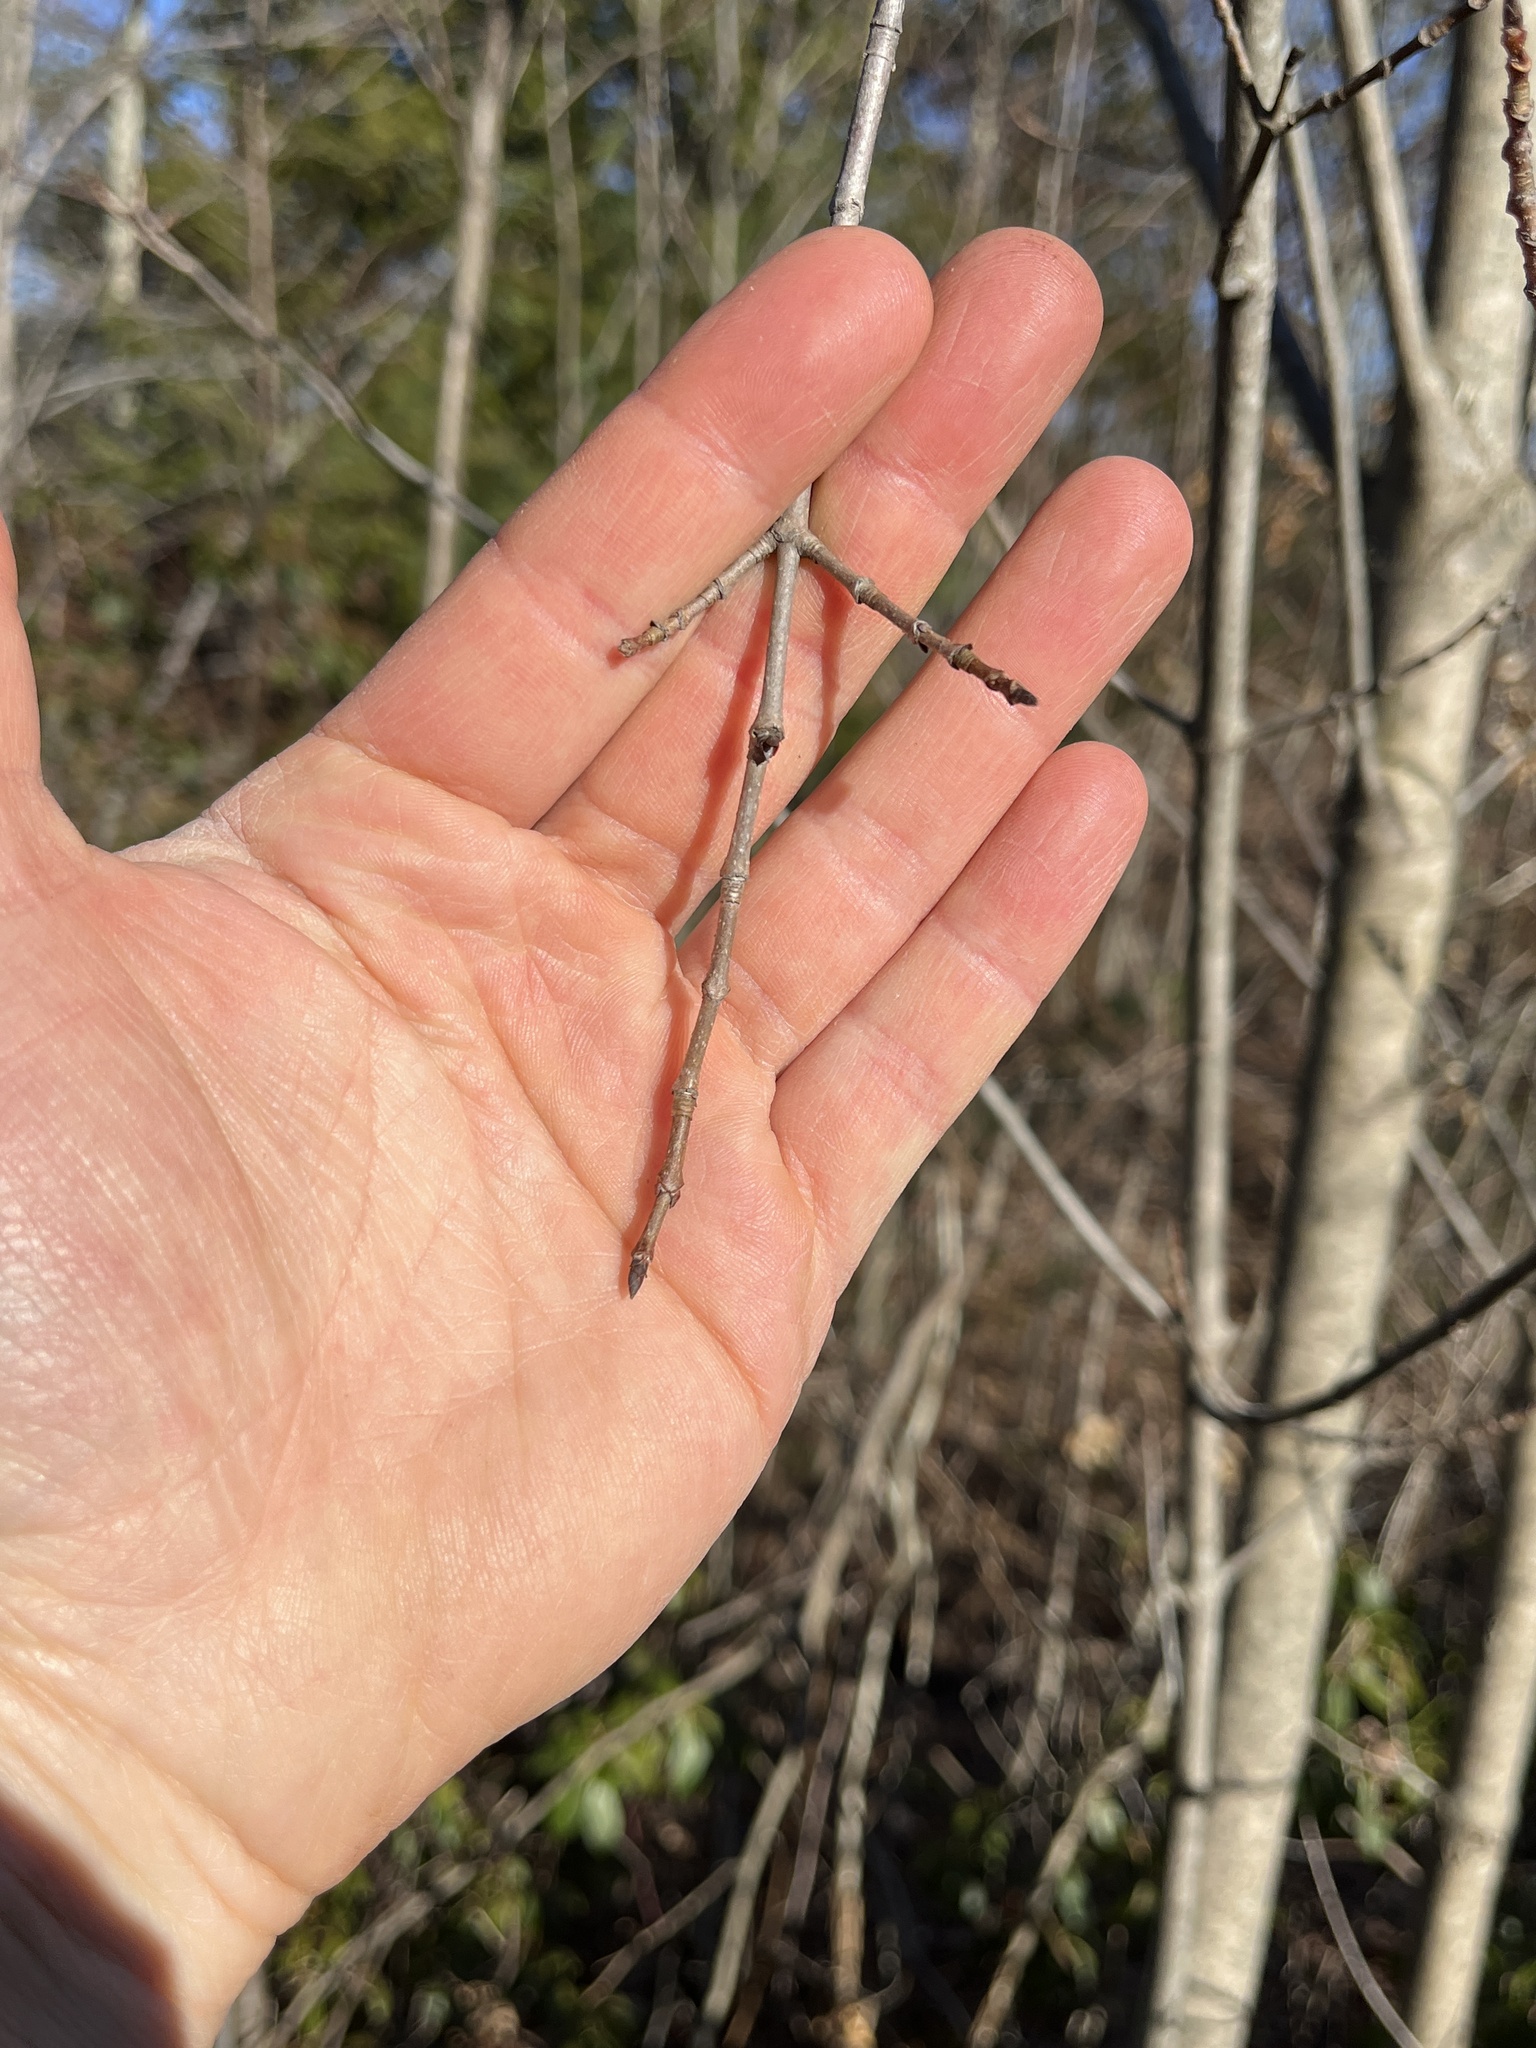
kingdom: Plantae
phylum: Tracheophyta
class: Magnoliopsida
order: Sapindales
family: Sapindaceae
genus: Acer
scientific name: Acer saccharum
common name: Sugar maple
